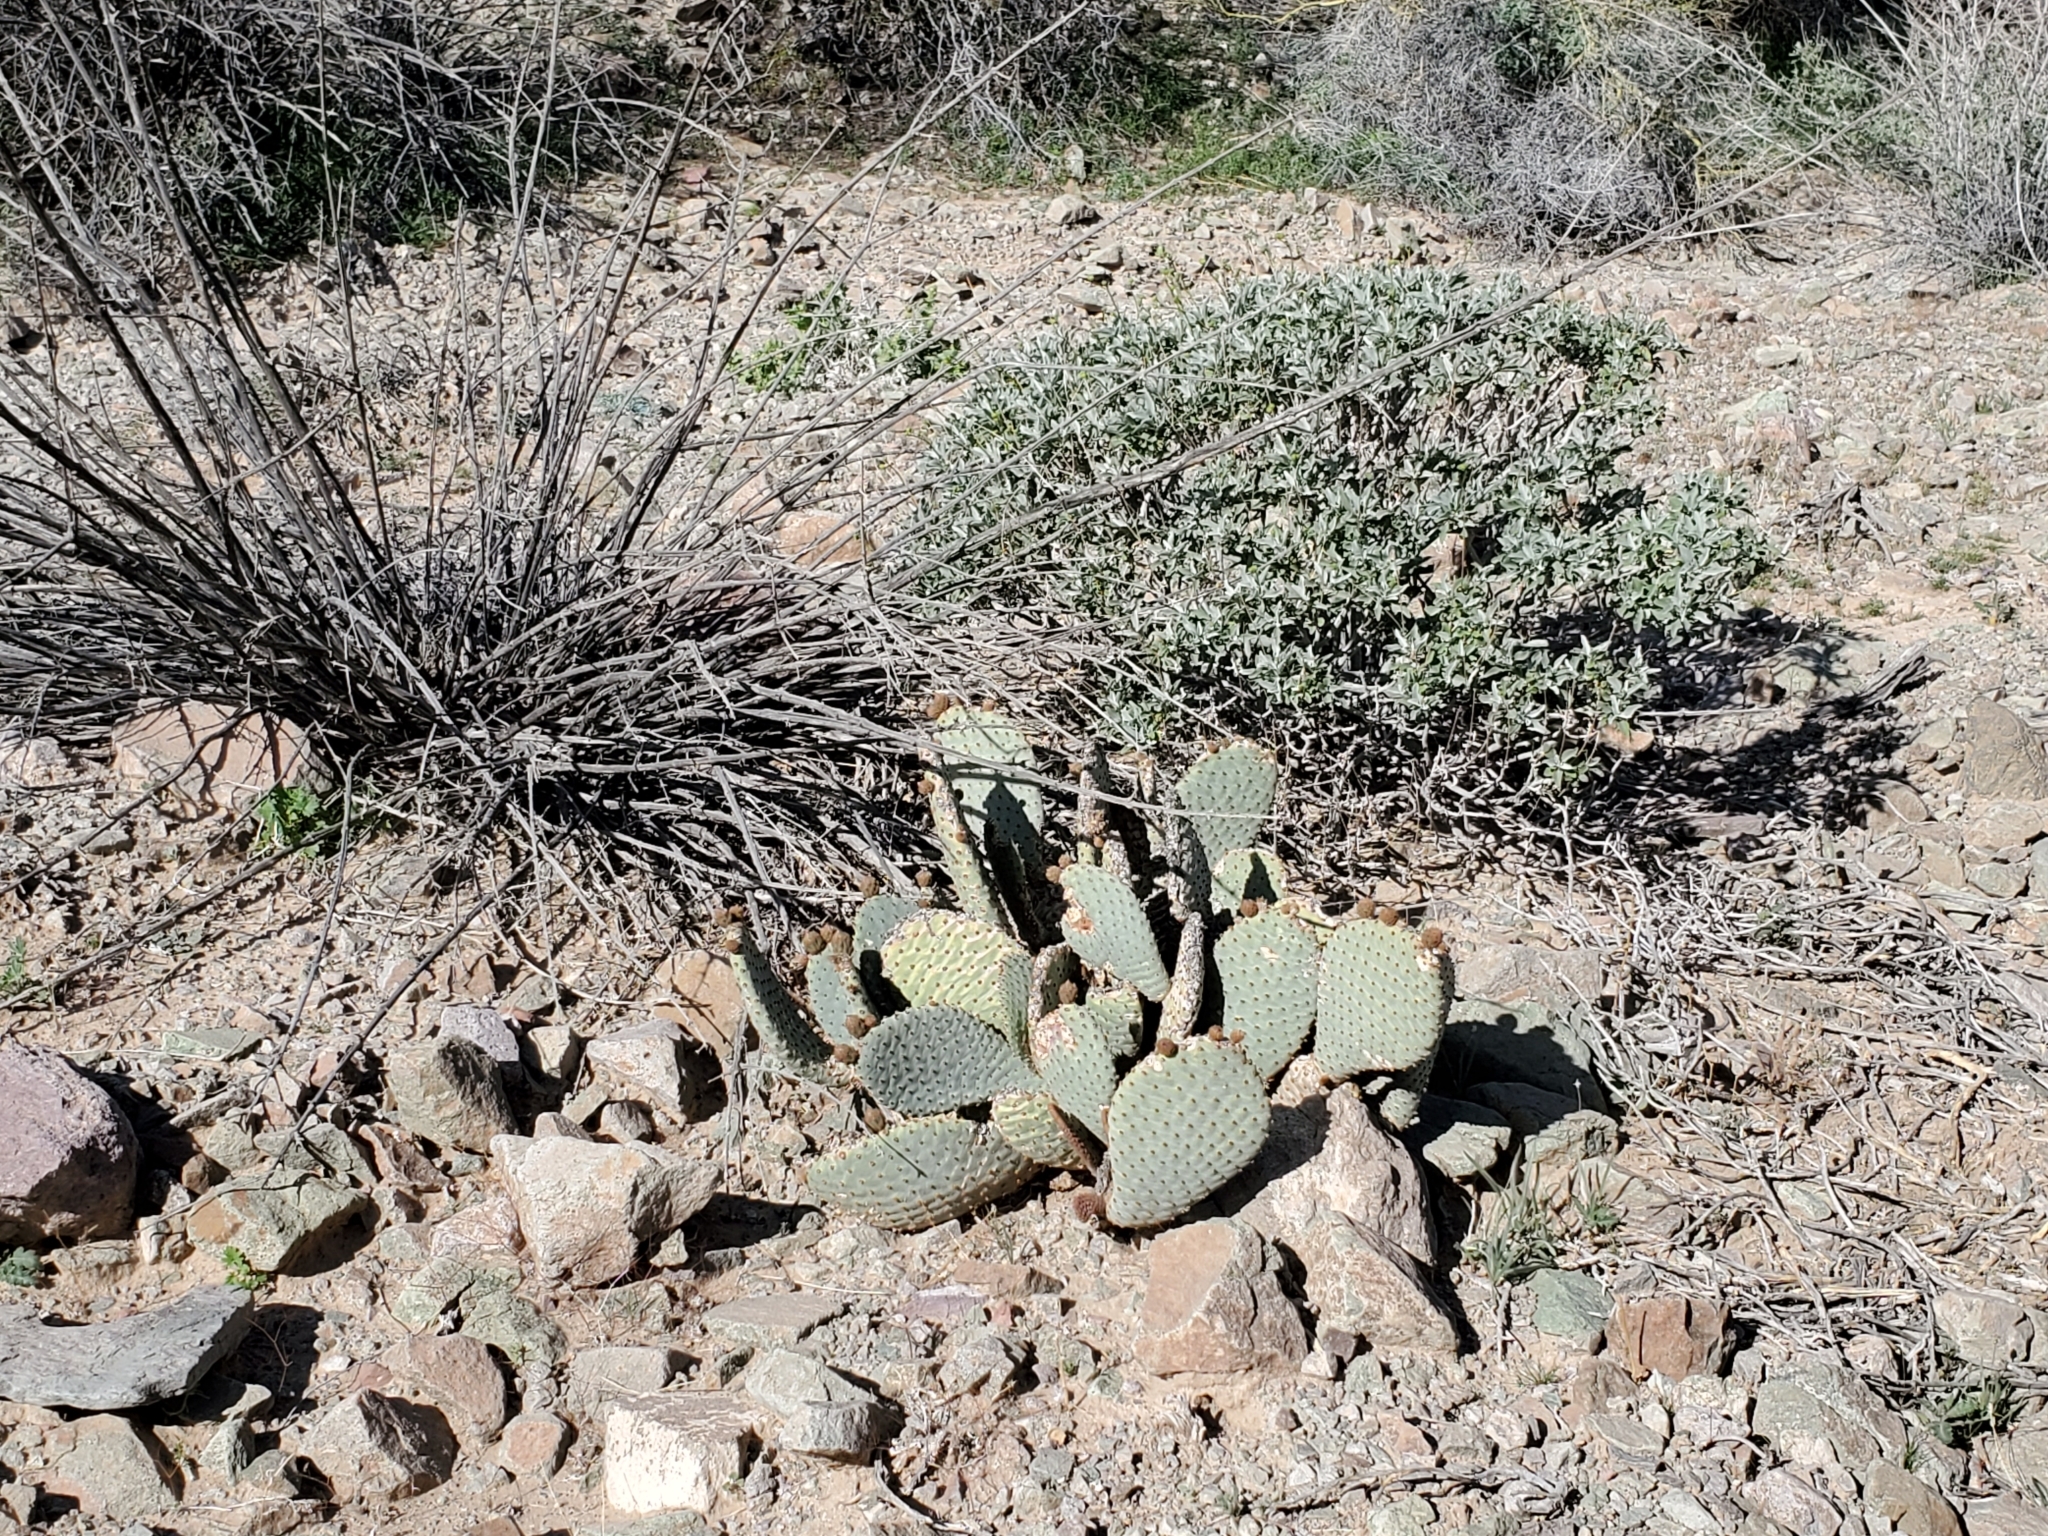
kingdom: Plantae
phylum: Tracheophyta
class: Magnoliopsida
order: Caryophyllales
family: Cactaceae
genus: Opuntia
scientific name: Opuntia basilaris
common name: Beavertail prickly-pear
